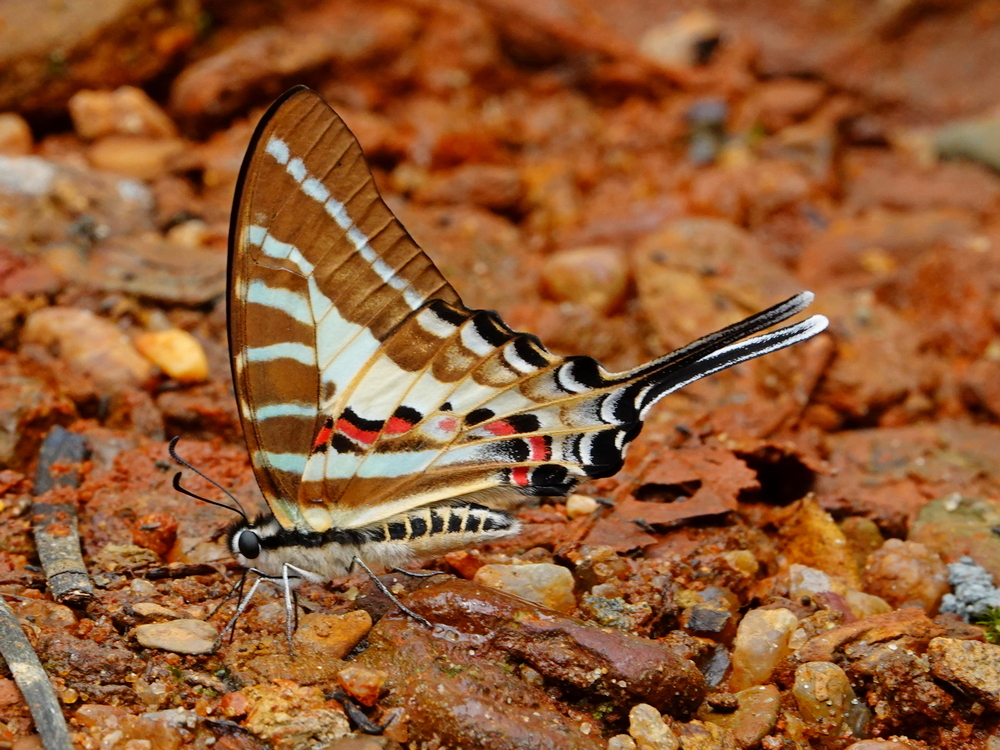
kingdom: Animalia
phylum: Arthropoda
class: Insecta
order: Lepidoptera
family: Papilionidae
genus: Graphium
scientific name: Graphium aristeus
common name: Chain swordtail
